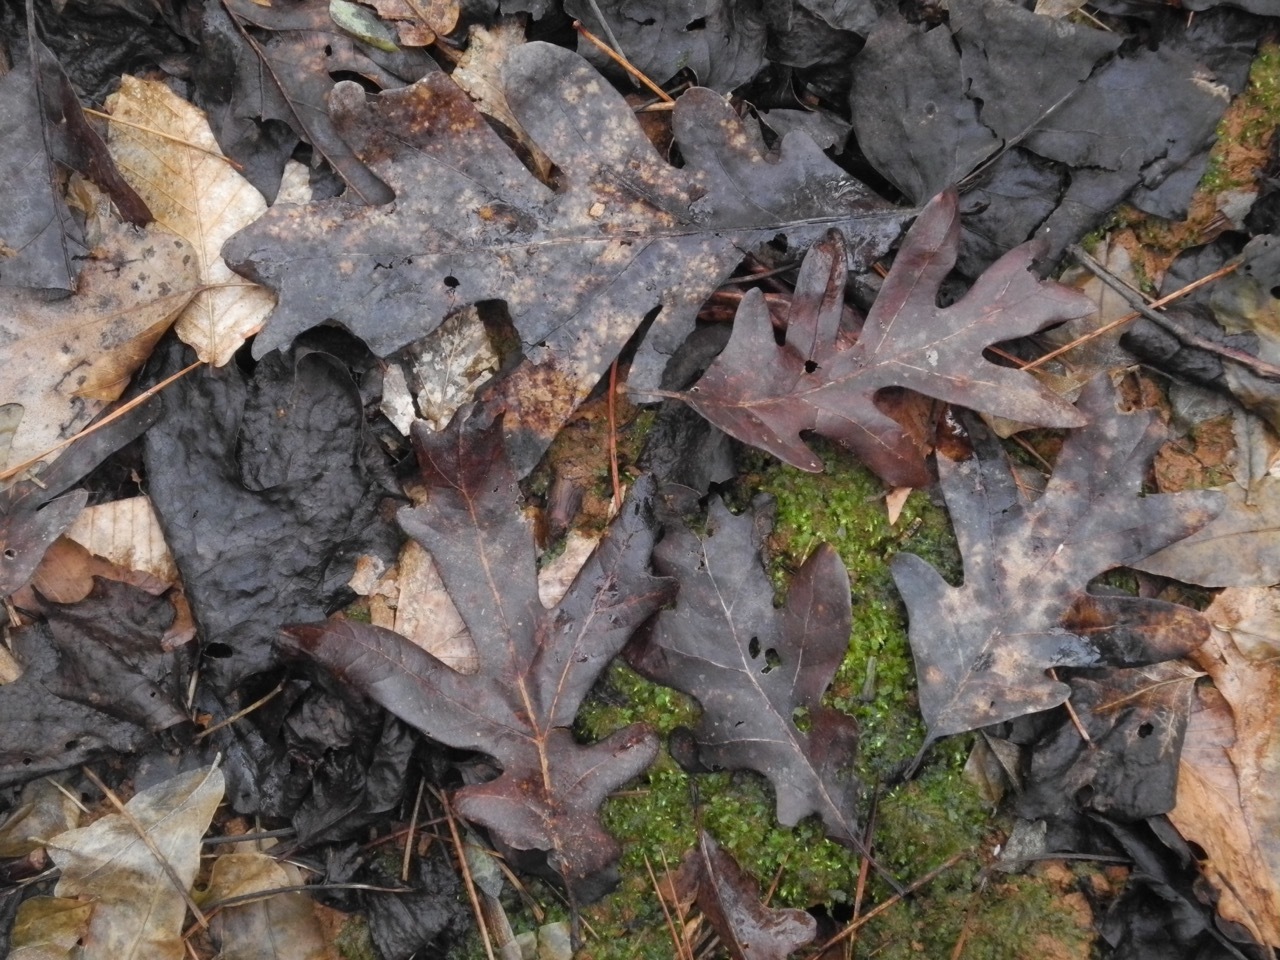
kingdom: Plantae
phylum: Tracheophyta
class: Magnoliopsida
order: Fagales
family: Fagaceae
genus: Quercus
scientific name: Quercus alba
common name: White oak
